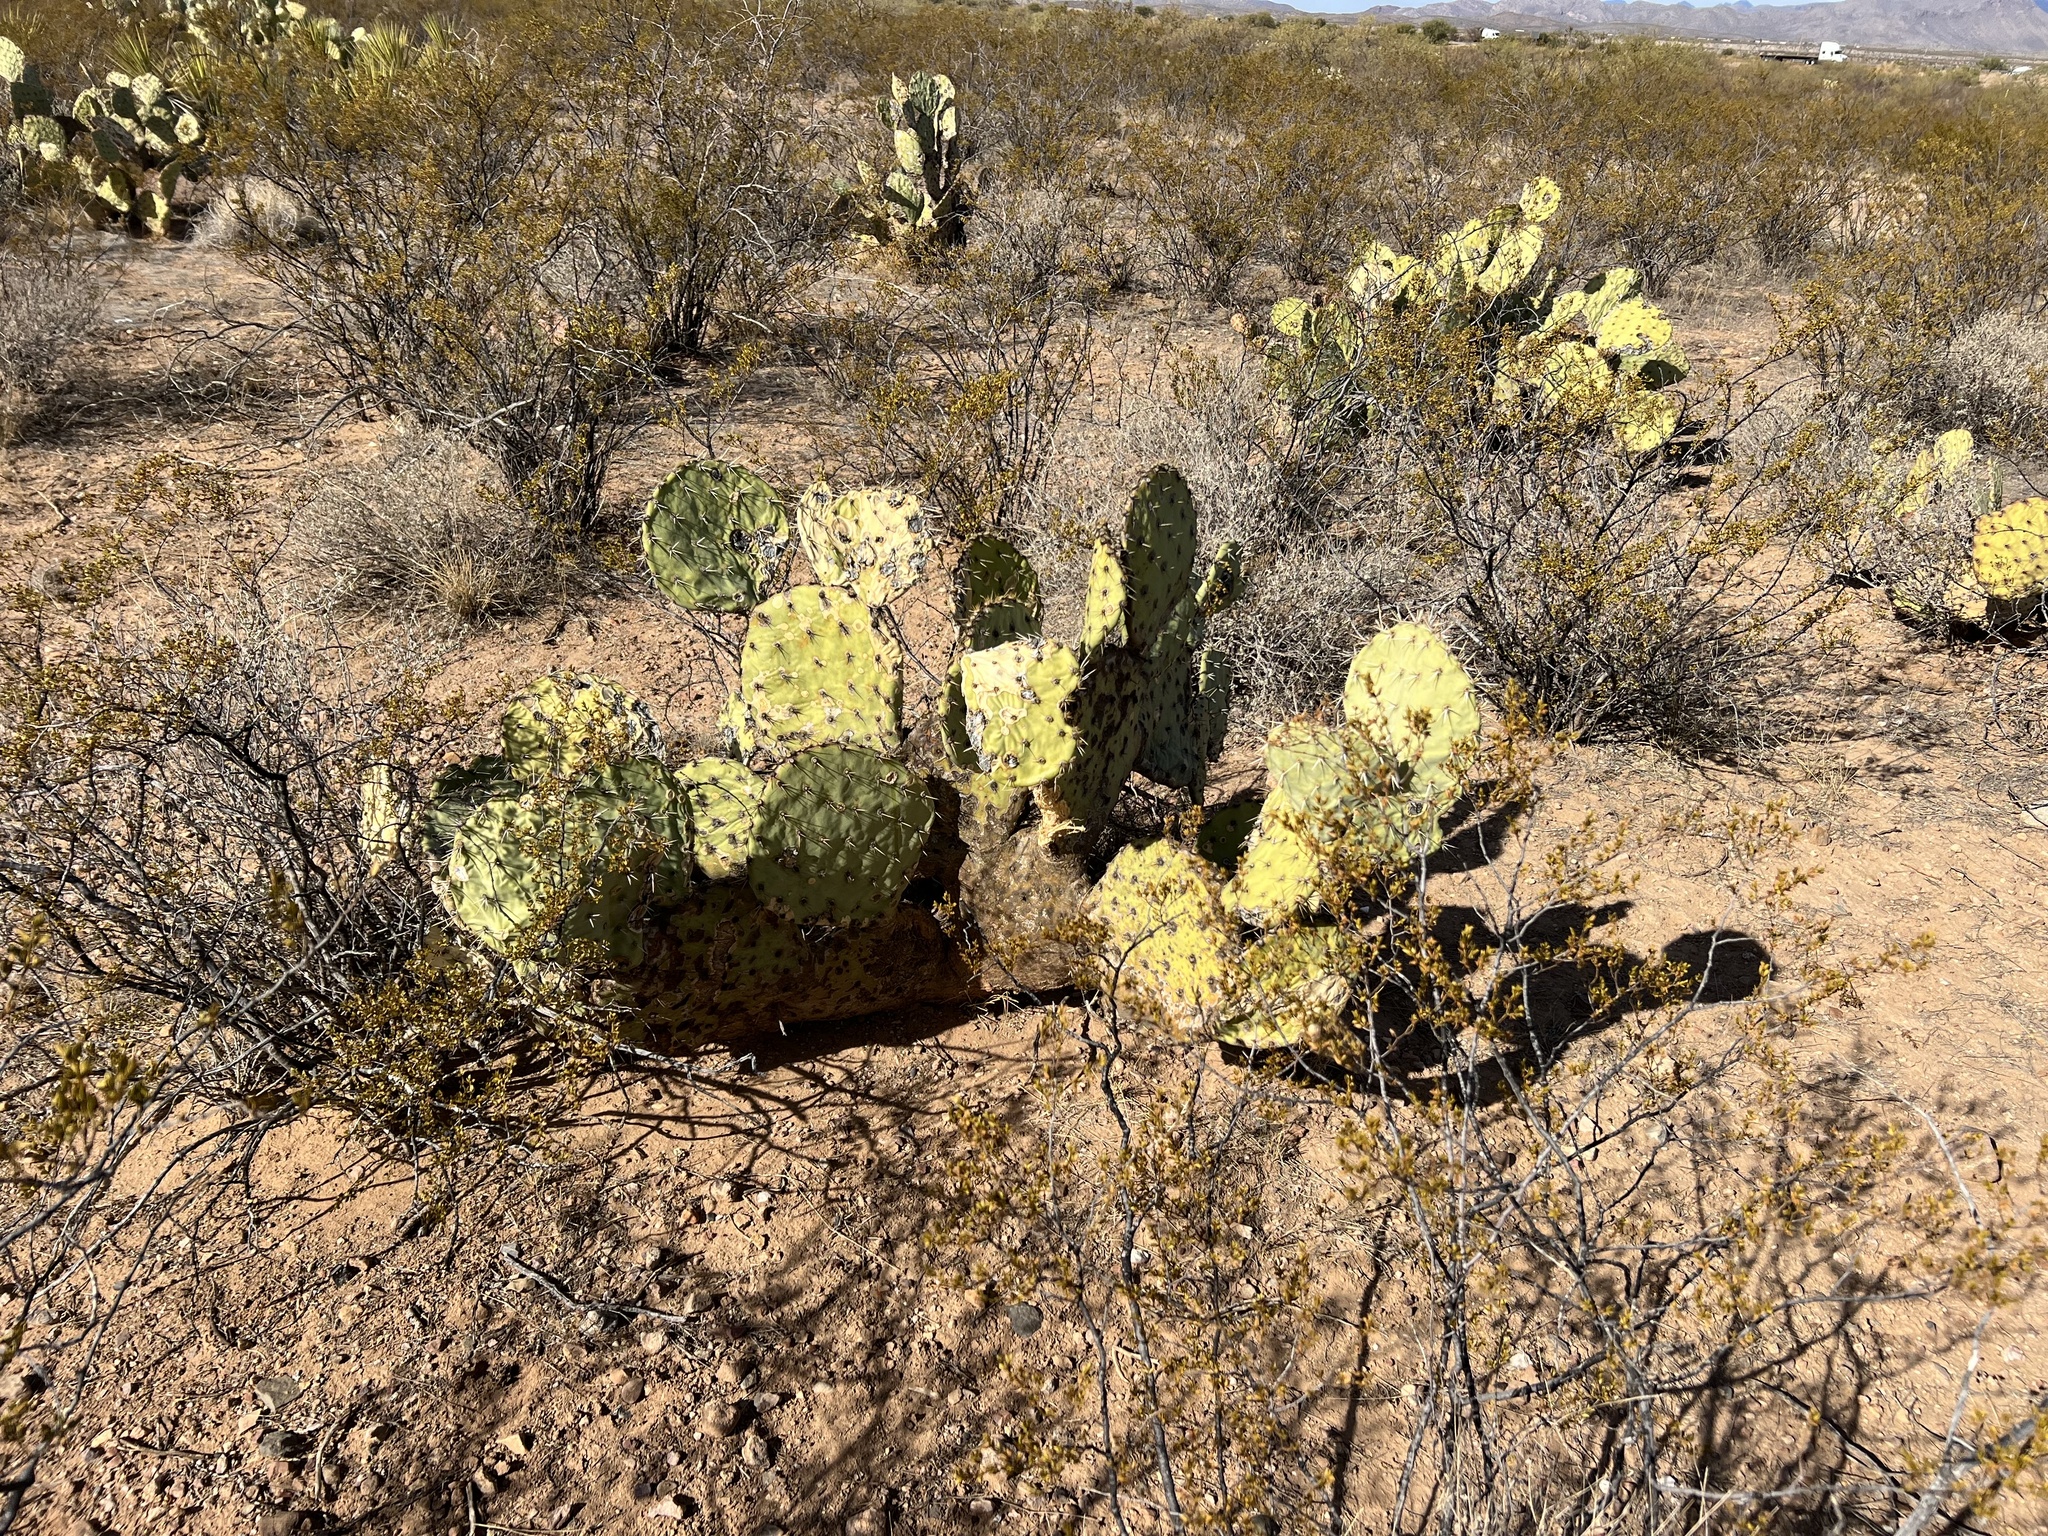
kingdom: Plantae
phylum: Tracheophyta
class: Magnoliopsida
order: Caryophyllales
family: Cactaceae
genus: Opuntia
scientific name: Opuntia engelmannii
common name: Cactus-apple
